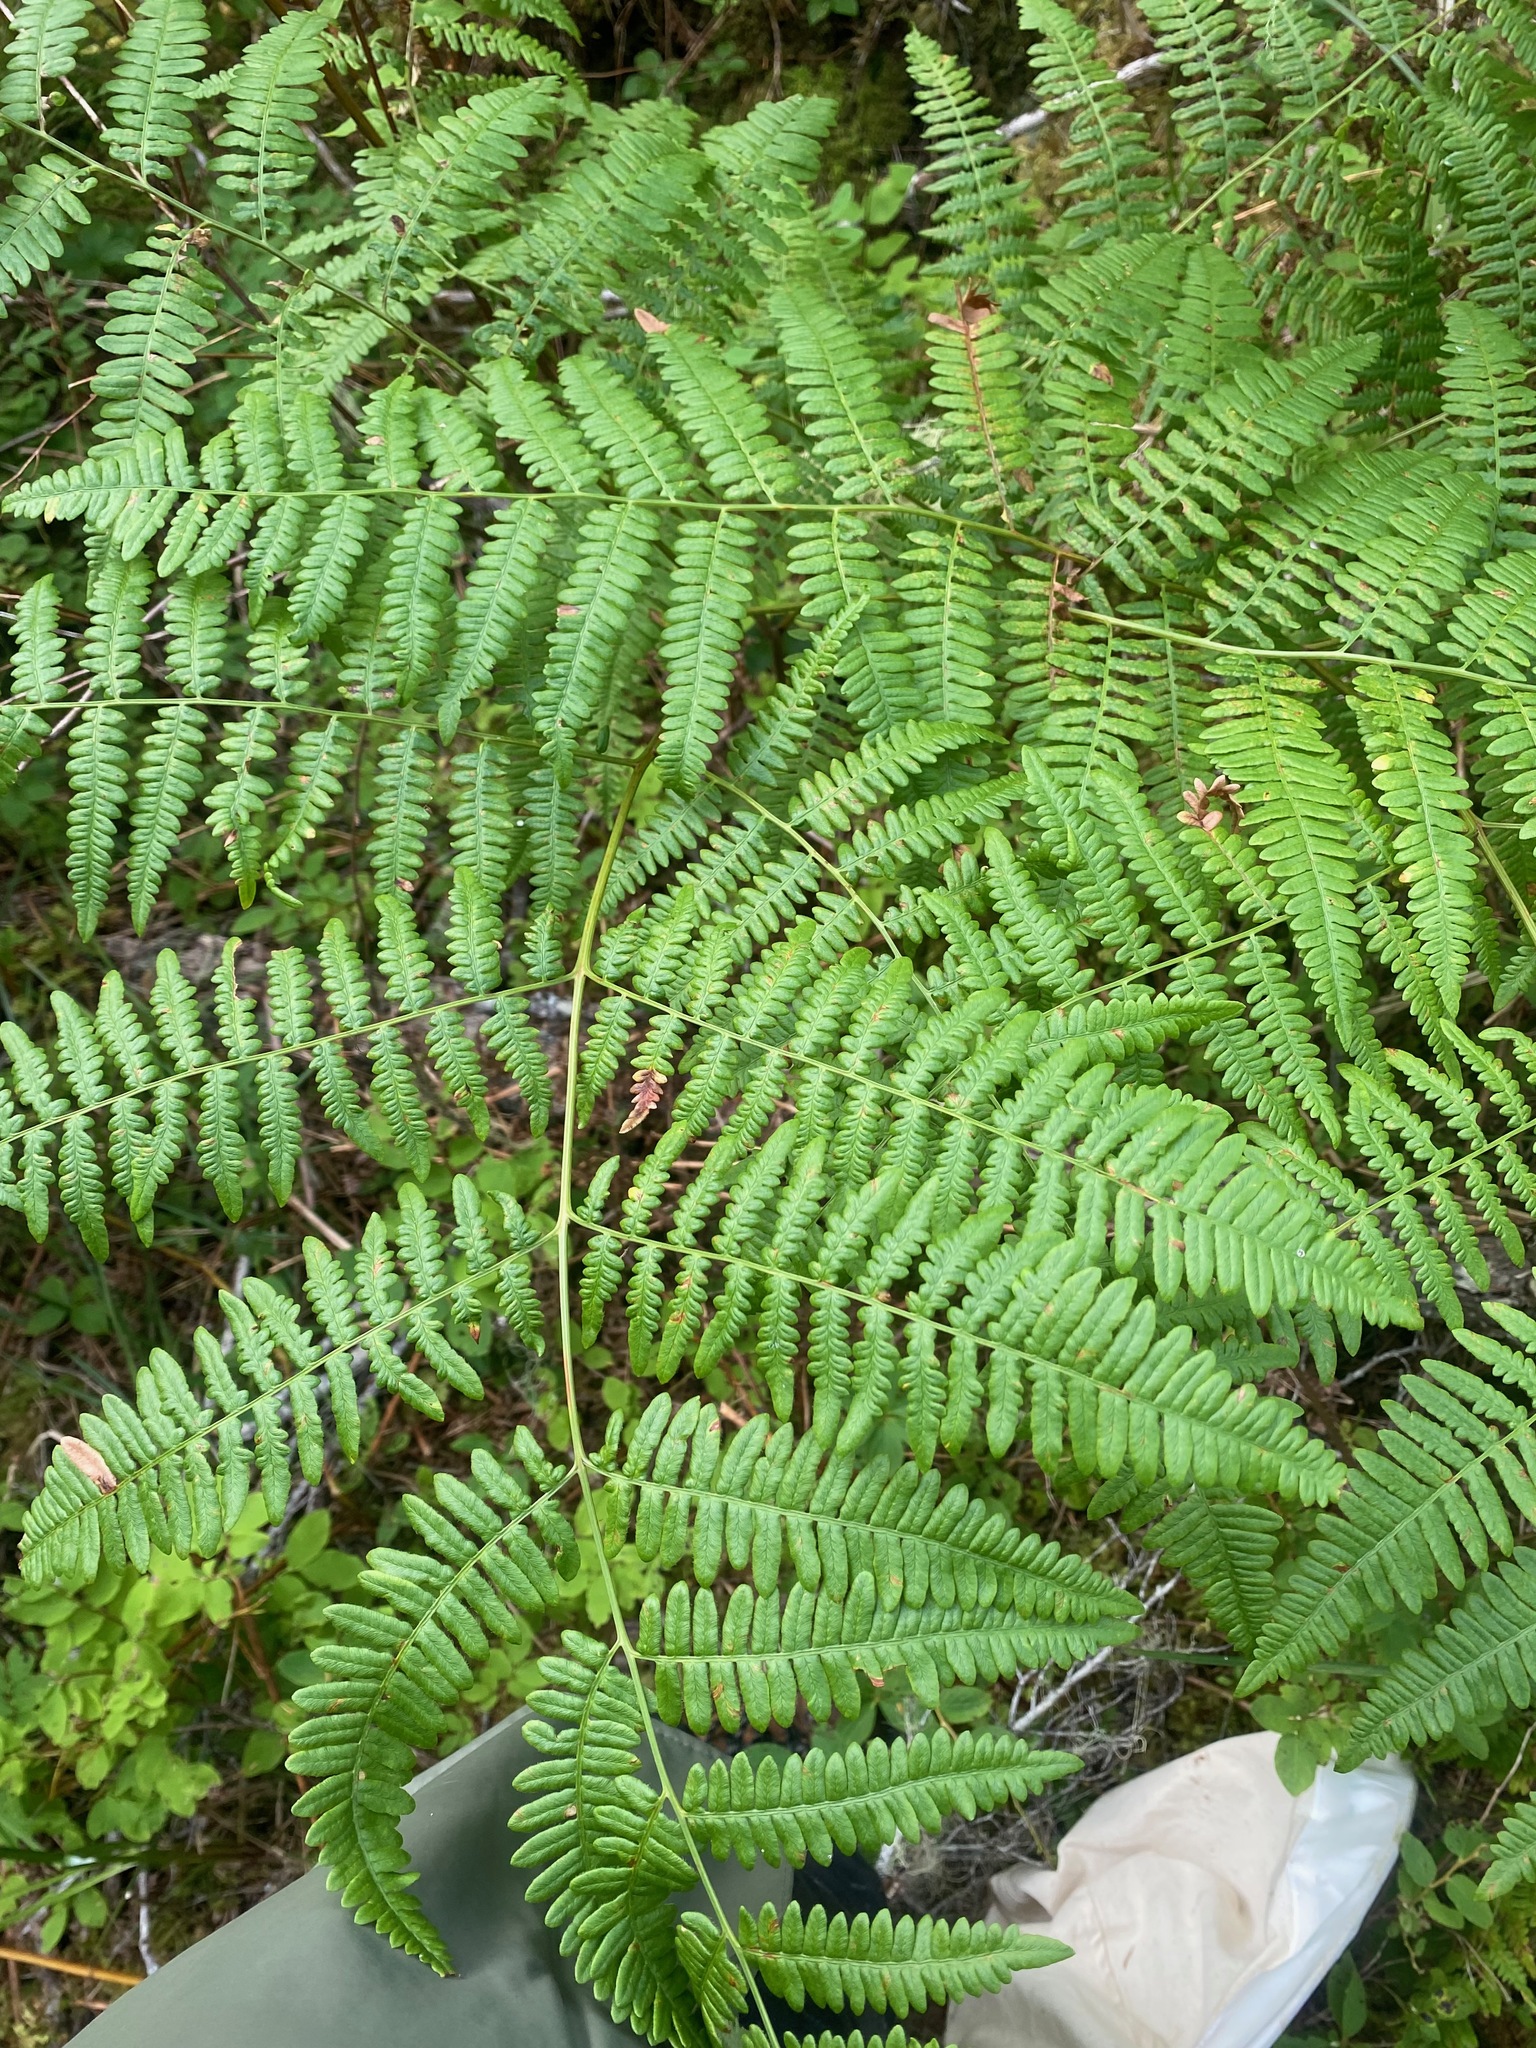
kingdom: Plantae
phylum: Tracheophyta
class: Polypodiopsida
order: Polypodiales
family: Dennstaedtiaceae
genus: Pteridium
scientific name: Pteridium aquilinum
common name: Bracken
